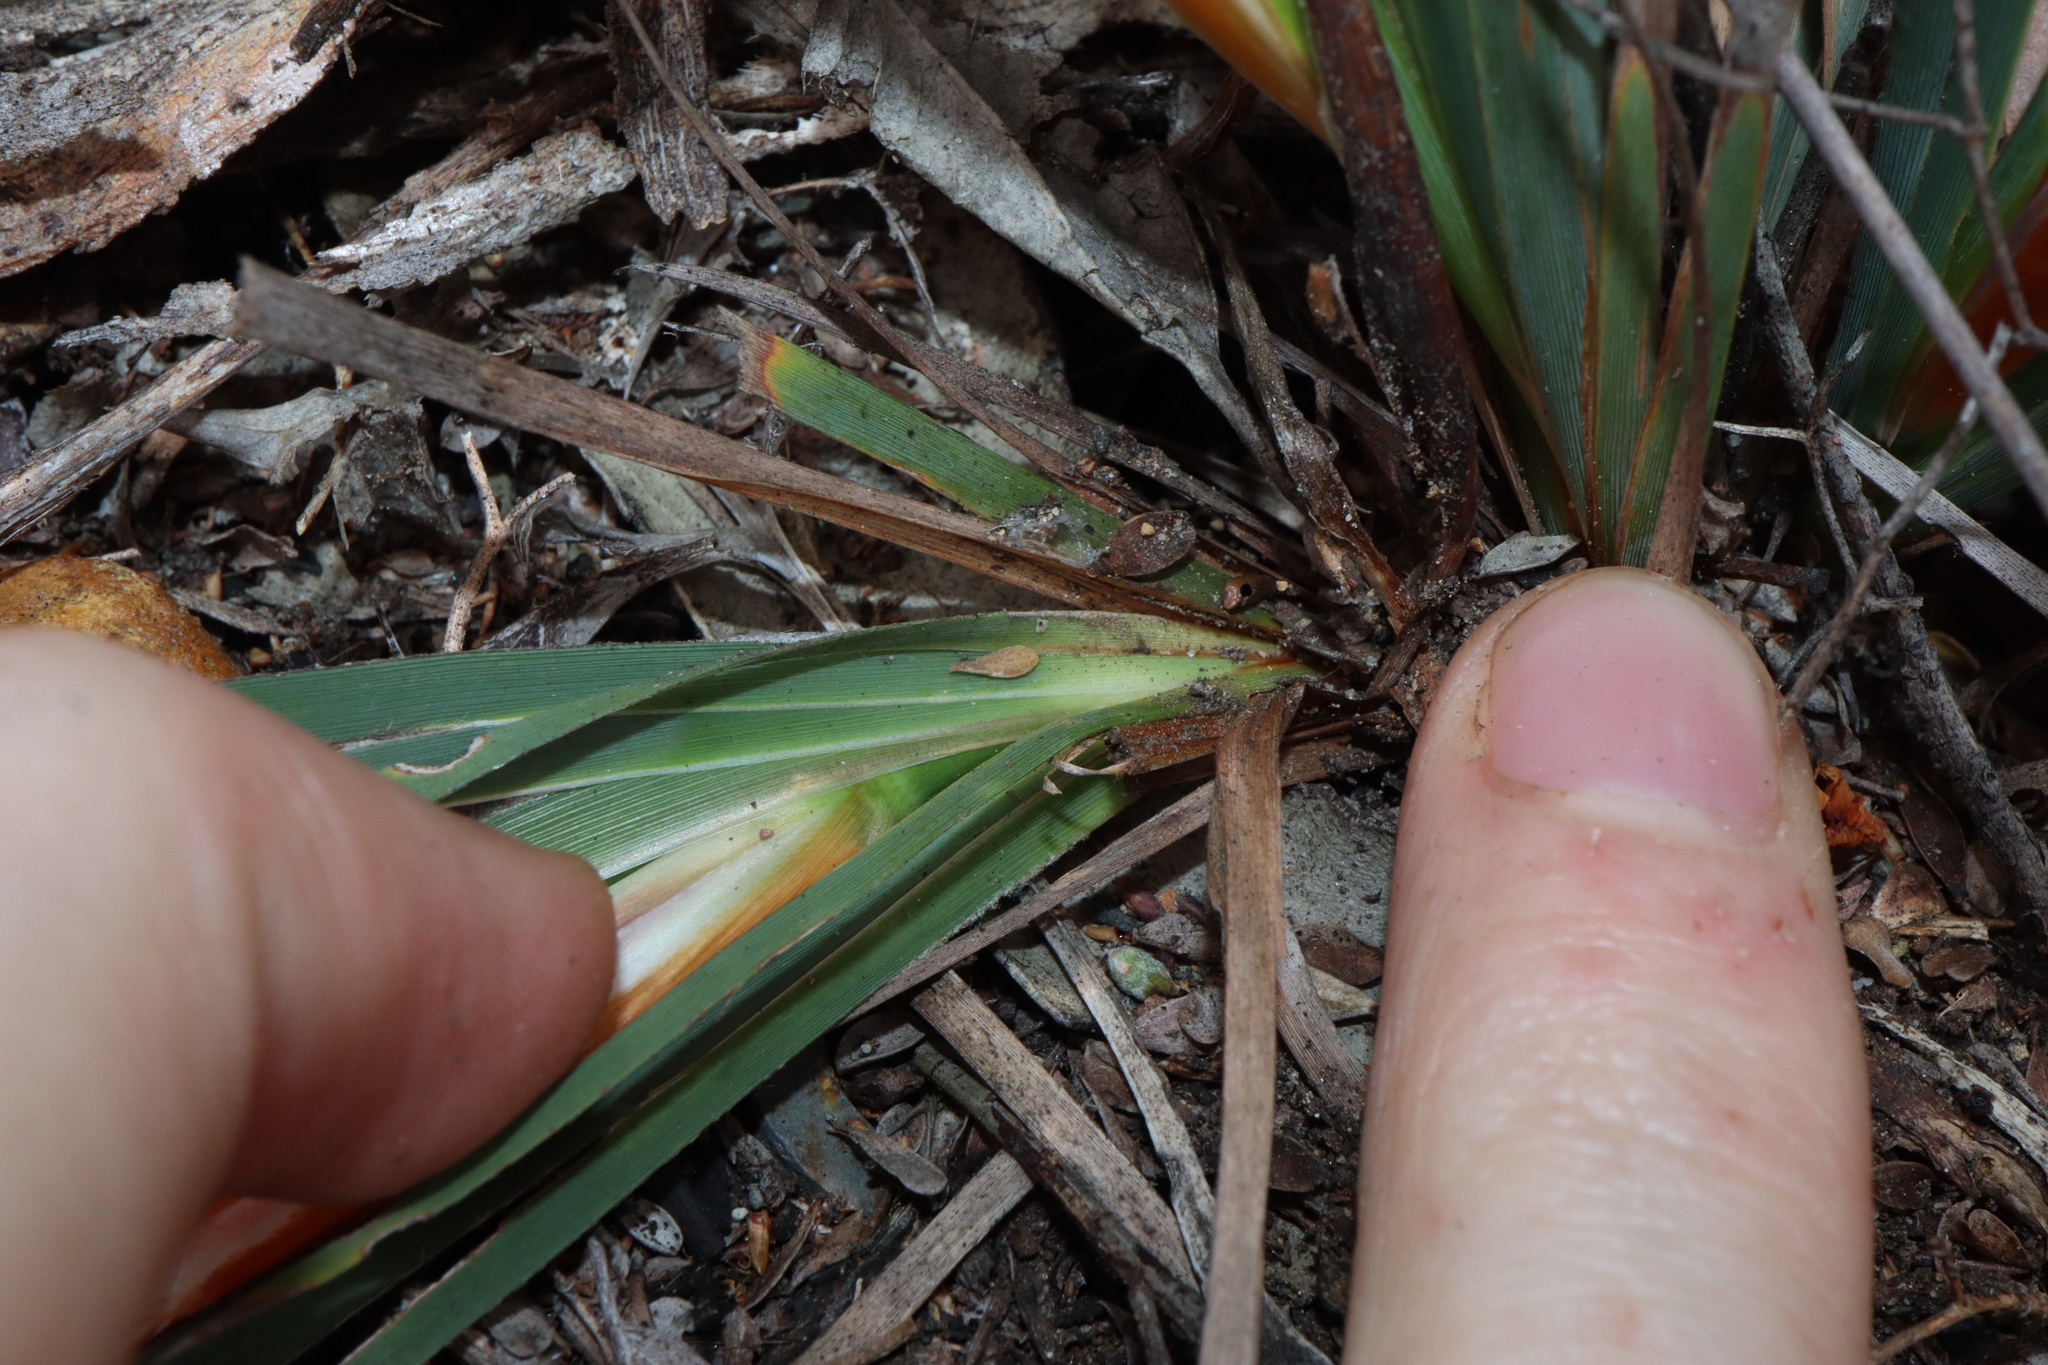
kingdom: Plantae
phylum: Tracheophyta
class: Liliopsida
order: Asparagales
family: Iridaceae
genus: Patersonia
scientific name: Patersonia pygmaea
